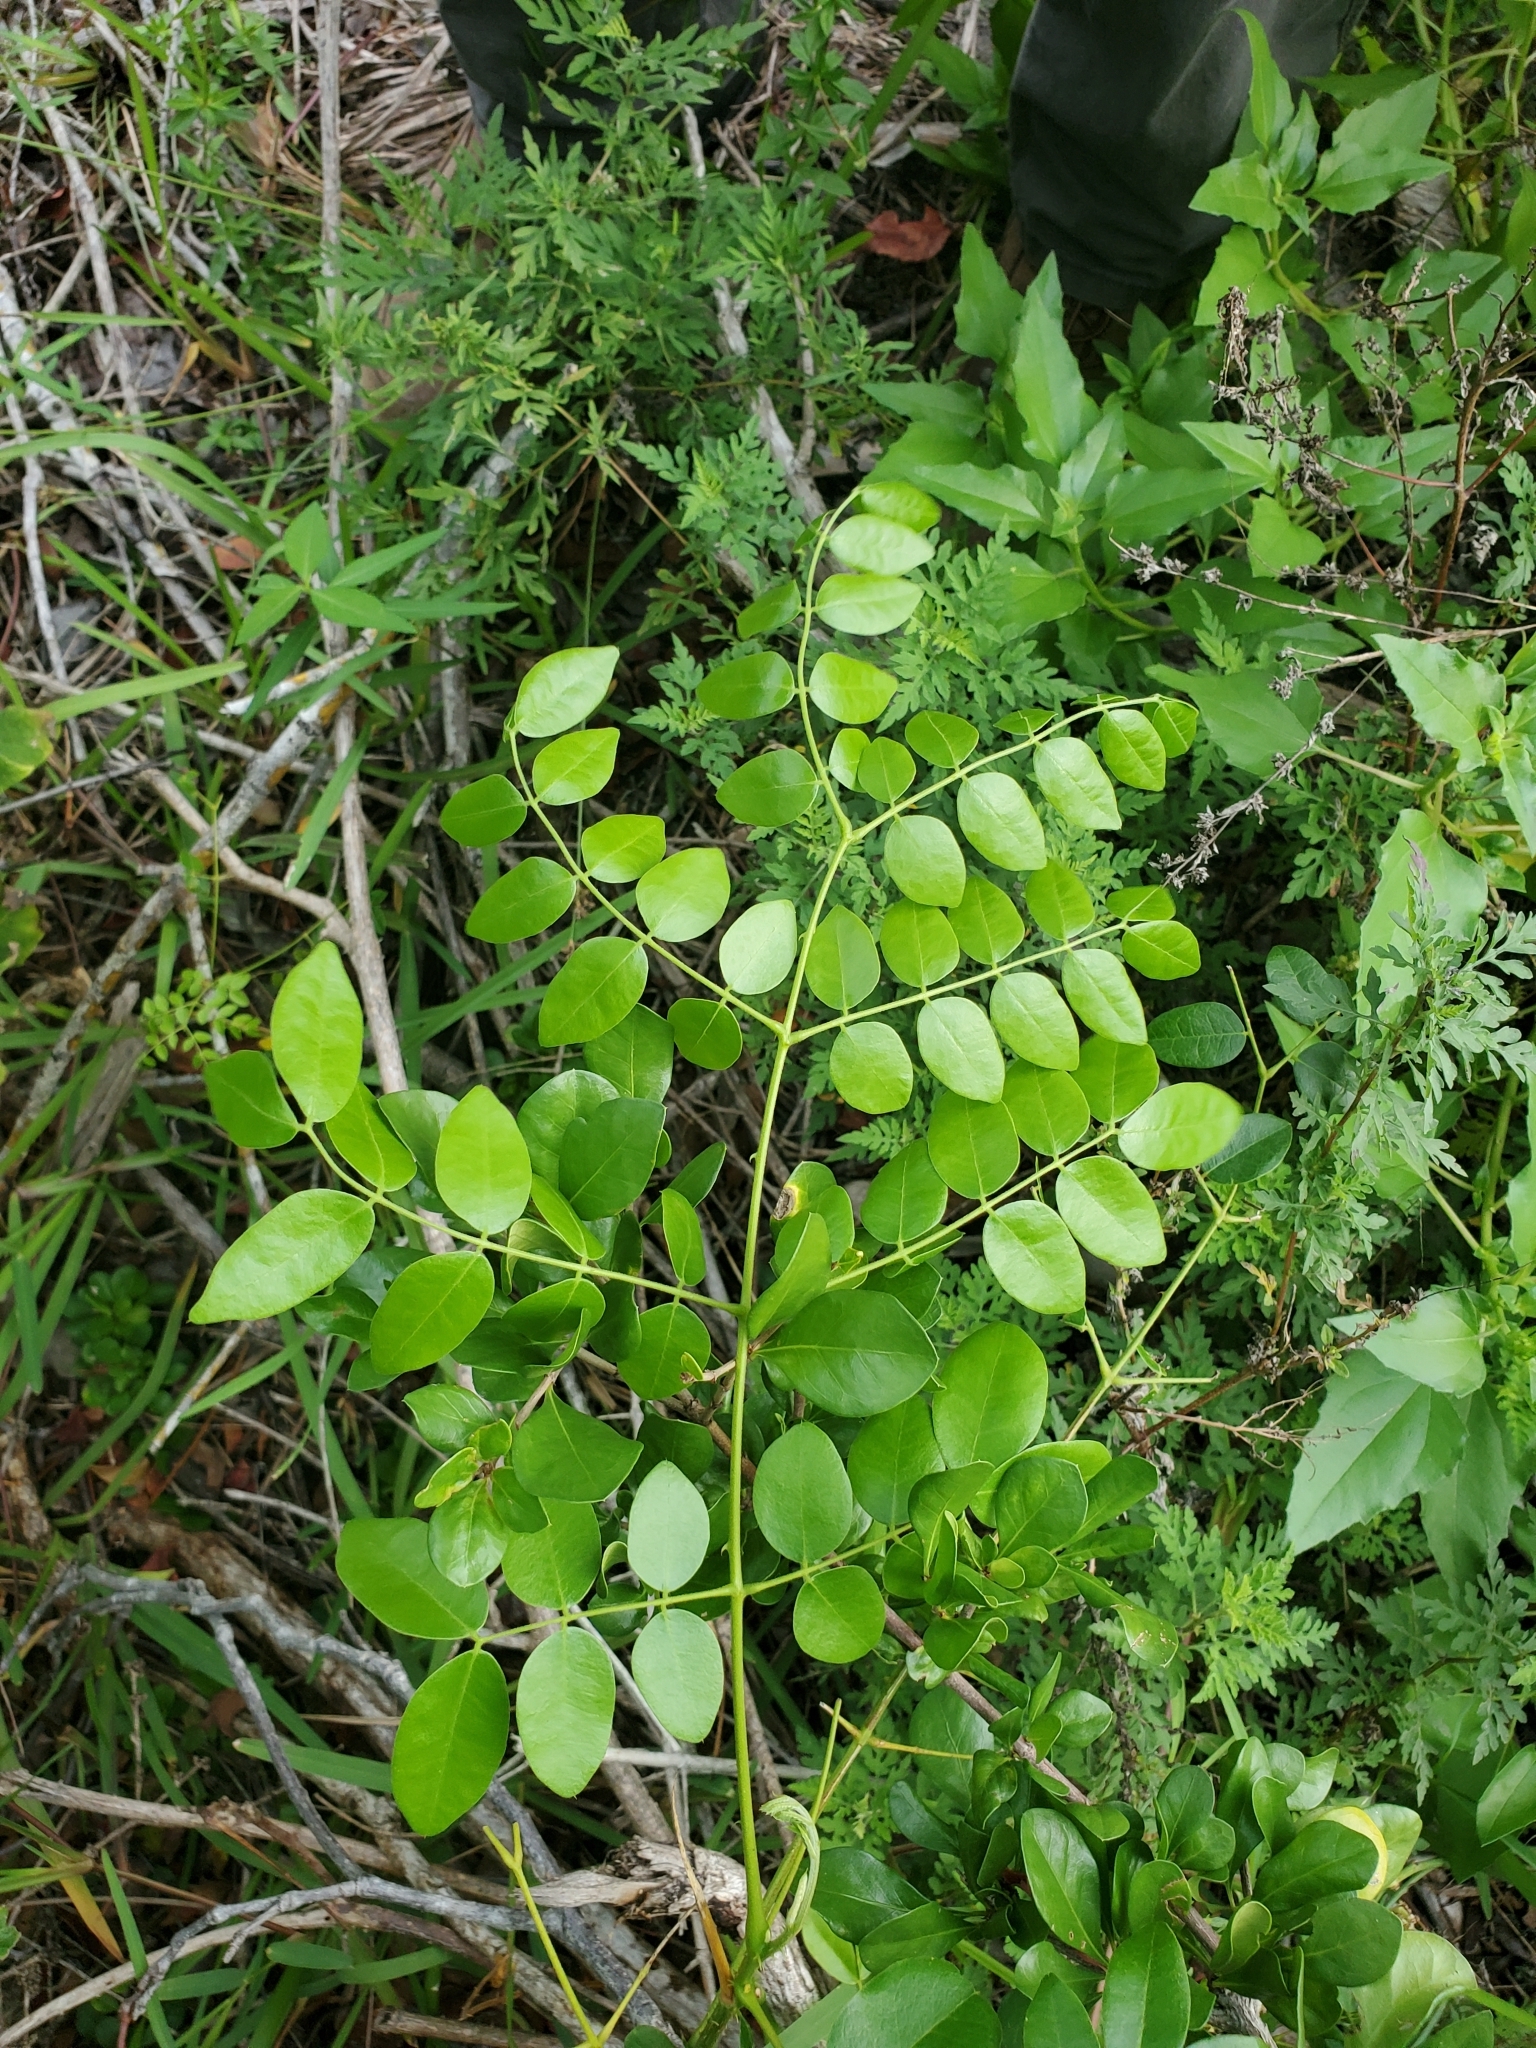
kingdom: Plantae
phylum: Tracheophyta
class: Magnoliopsida
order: Fabales
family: Fabaceae
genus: Guilandina
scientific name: Guilandina bonduc
